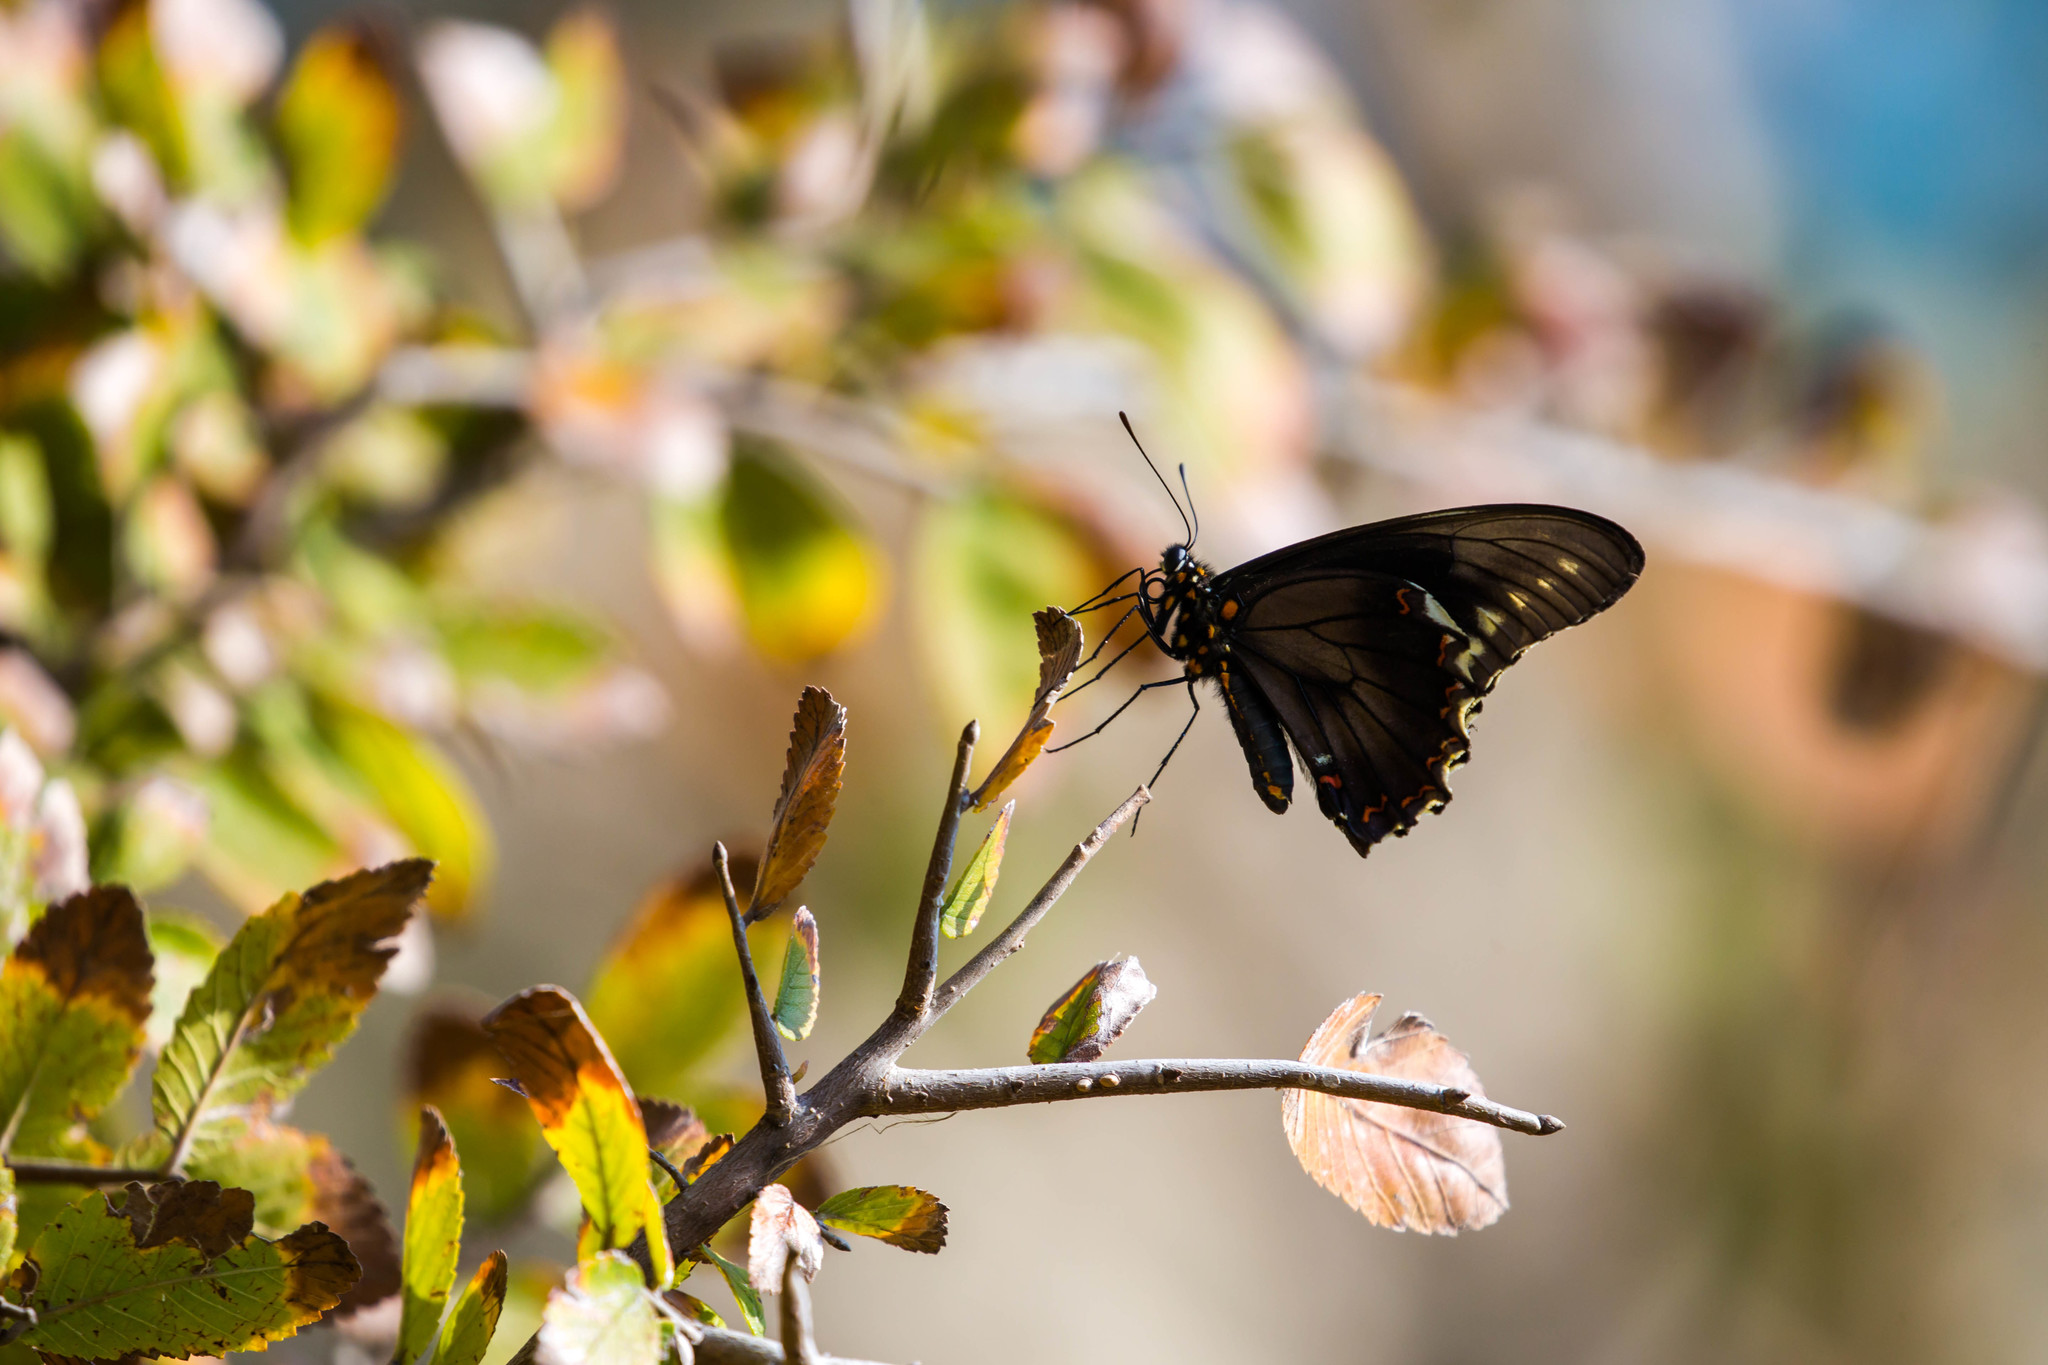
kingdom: Animalia
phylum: Arthropoda
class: Insecta
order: Lepidoptera
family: Papilionidae
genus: Battus
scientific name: Battus polydamas
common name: Polydamas swallowtail
